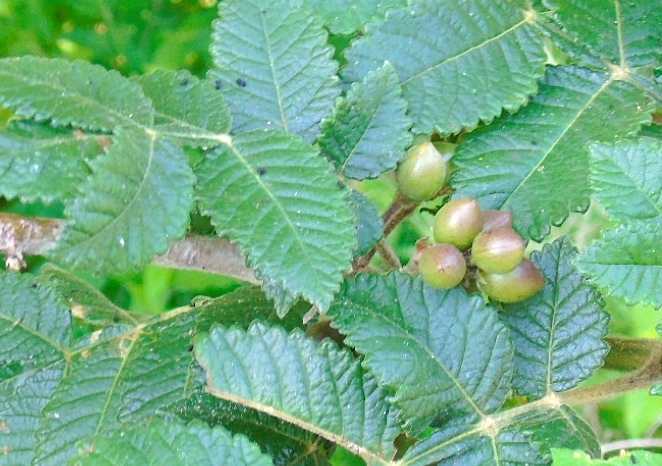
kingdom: Plantae
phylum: Tracheophyta
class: Magnoliopsida
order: Sapindales
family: Burseraceae
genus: Bursera
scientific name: Bursera excelsa
